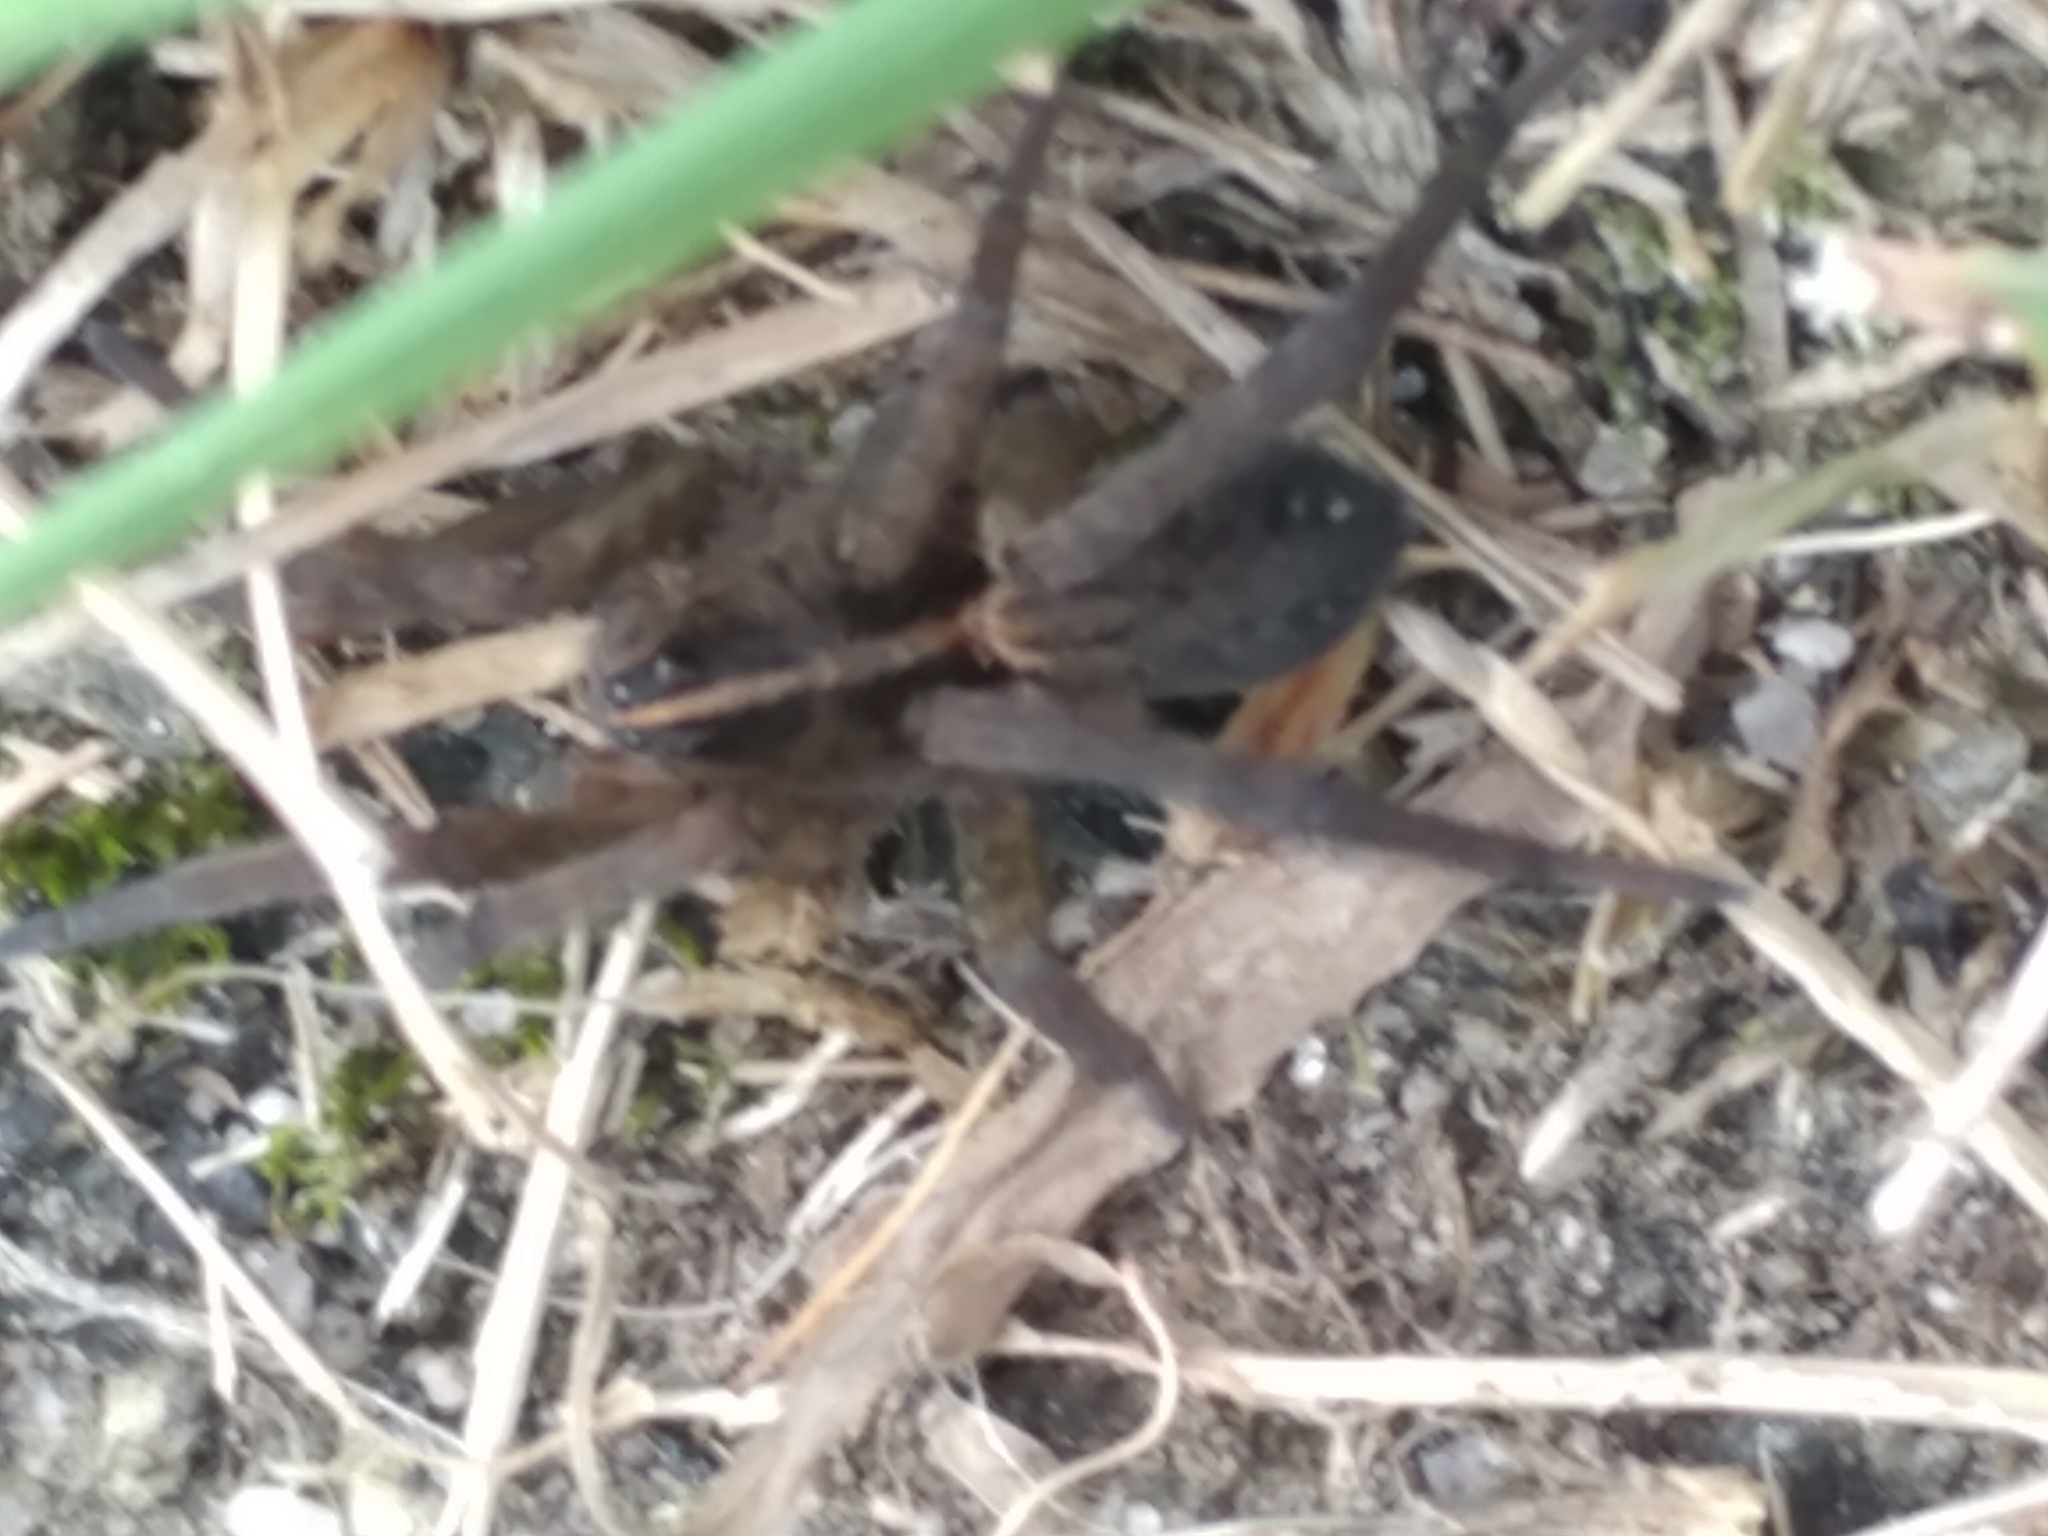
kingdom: Animalia
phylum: Arthropoda
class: Arachnida
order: Araneae
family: Lycosidae
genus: Tigrosa
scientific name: Tigrosa helluo
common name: Wetland giant wolf spider
